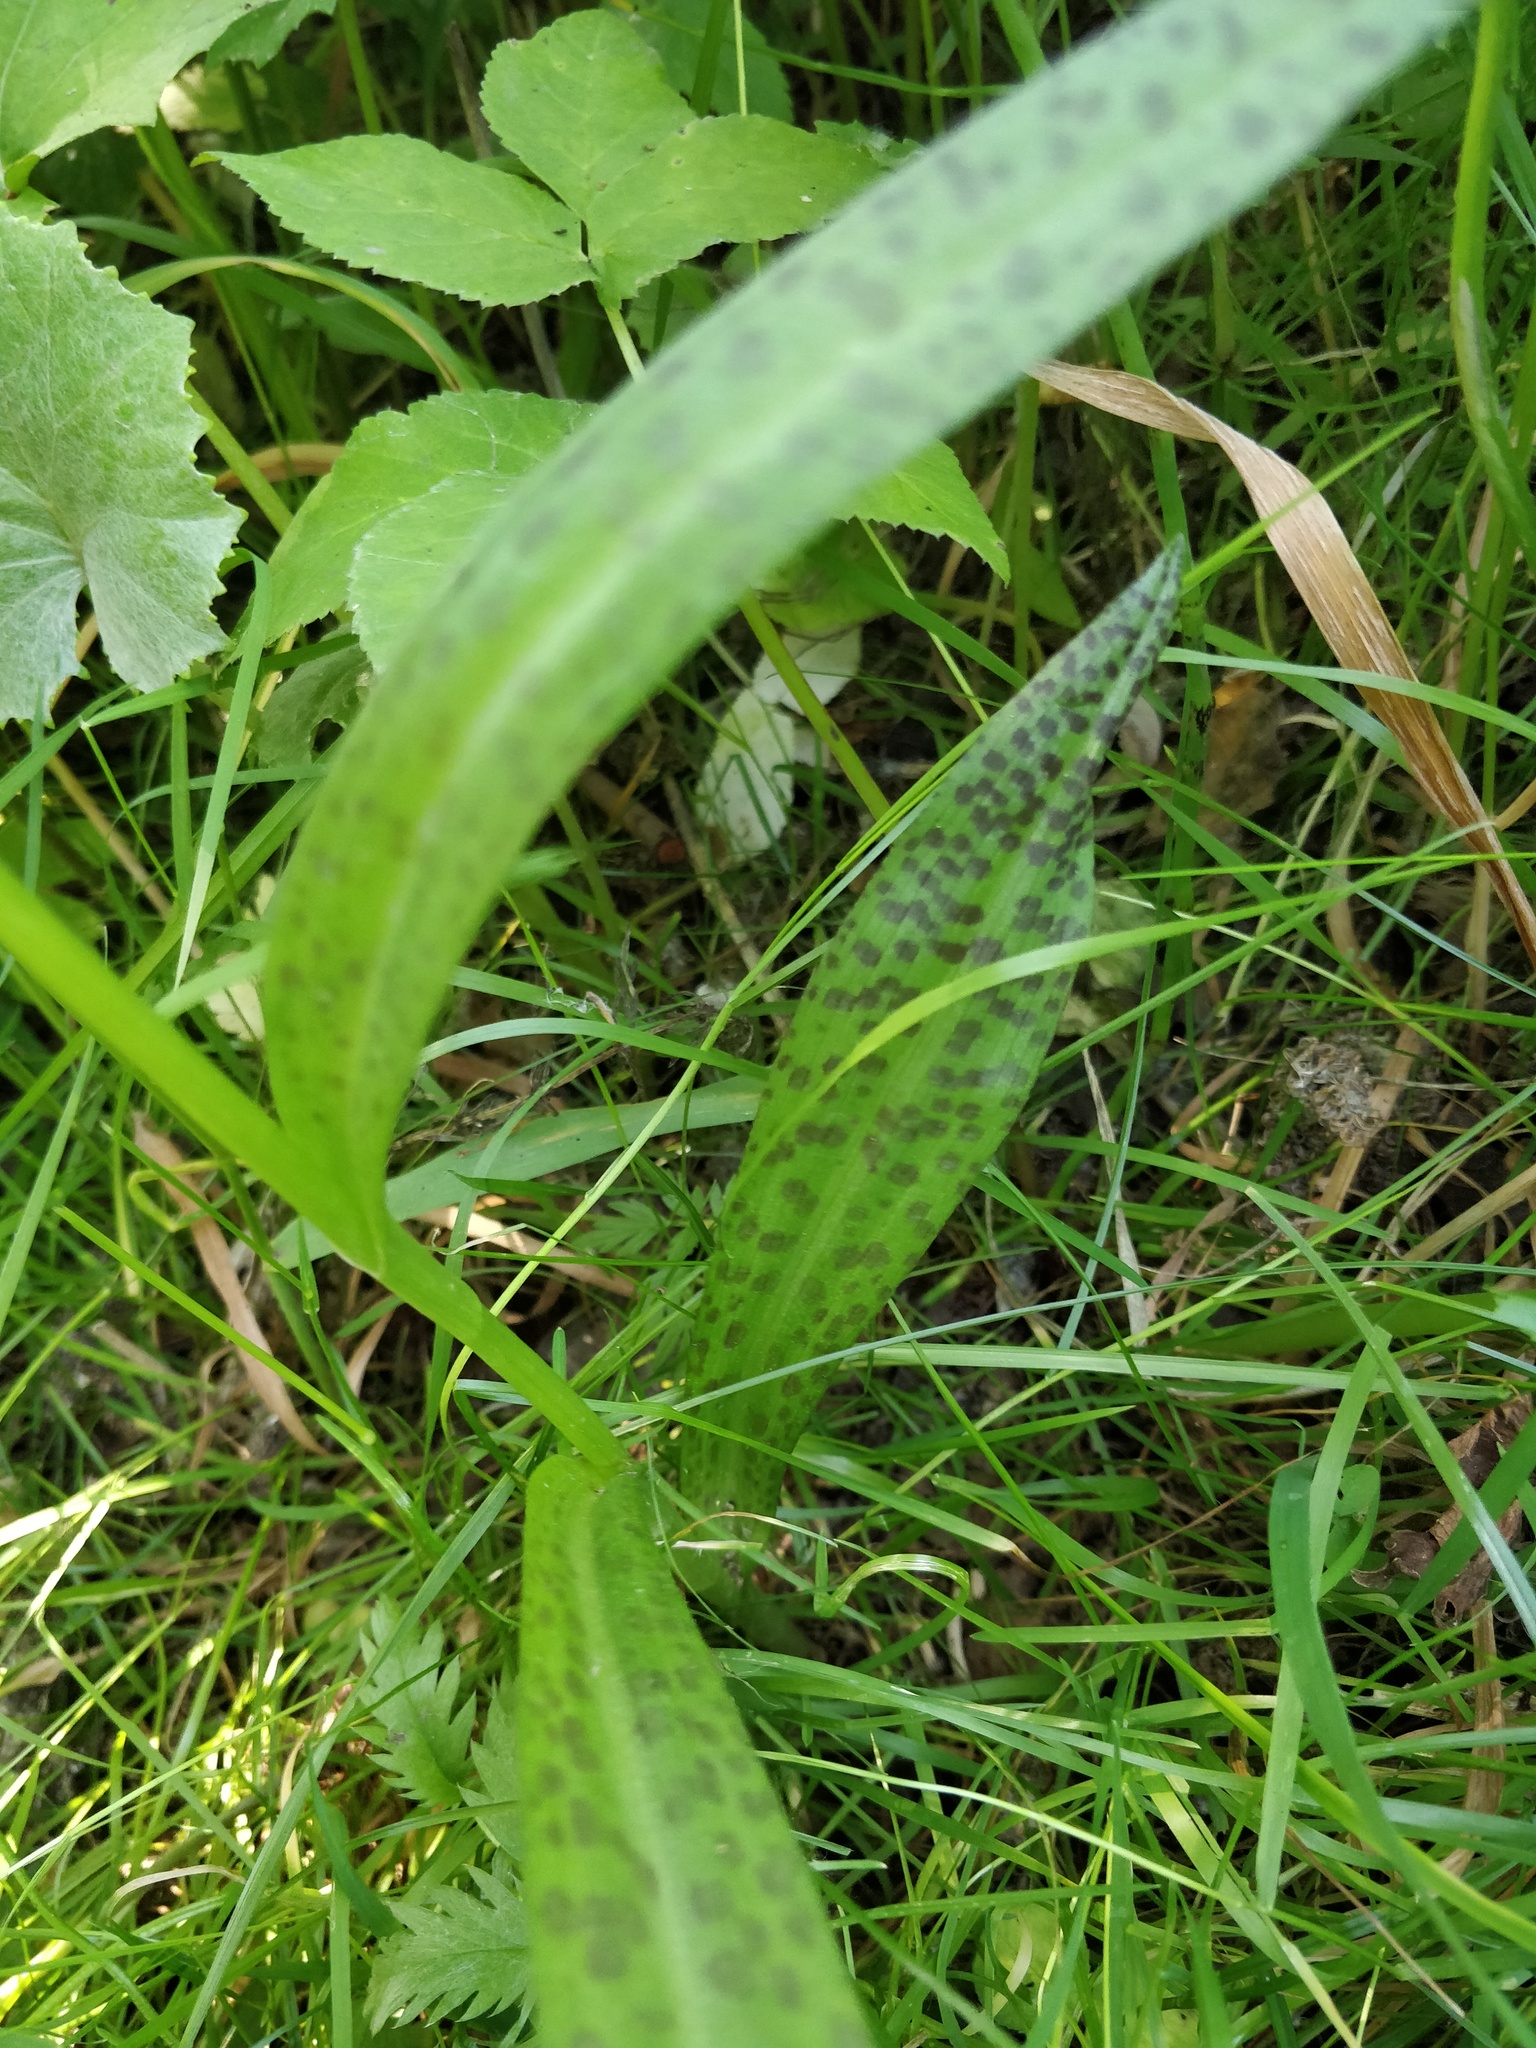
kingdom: Plantae
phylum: Tracheophyta
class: Liliopsida
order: Asparagales
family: Orchidaceae
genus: Dactylorhiza
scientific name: Dactylorhiza majalis
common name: Marsh orchid
